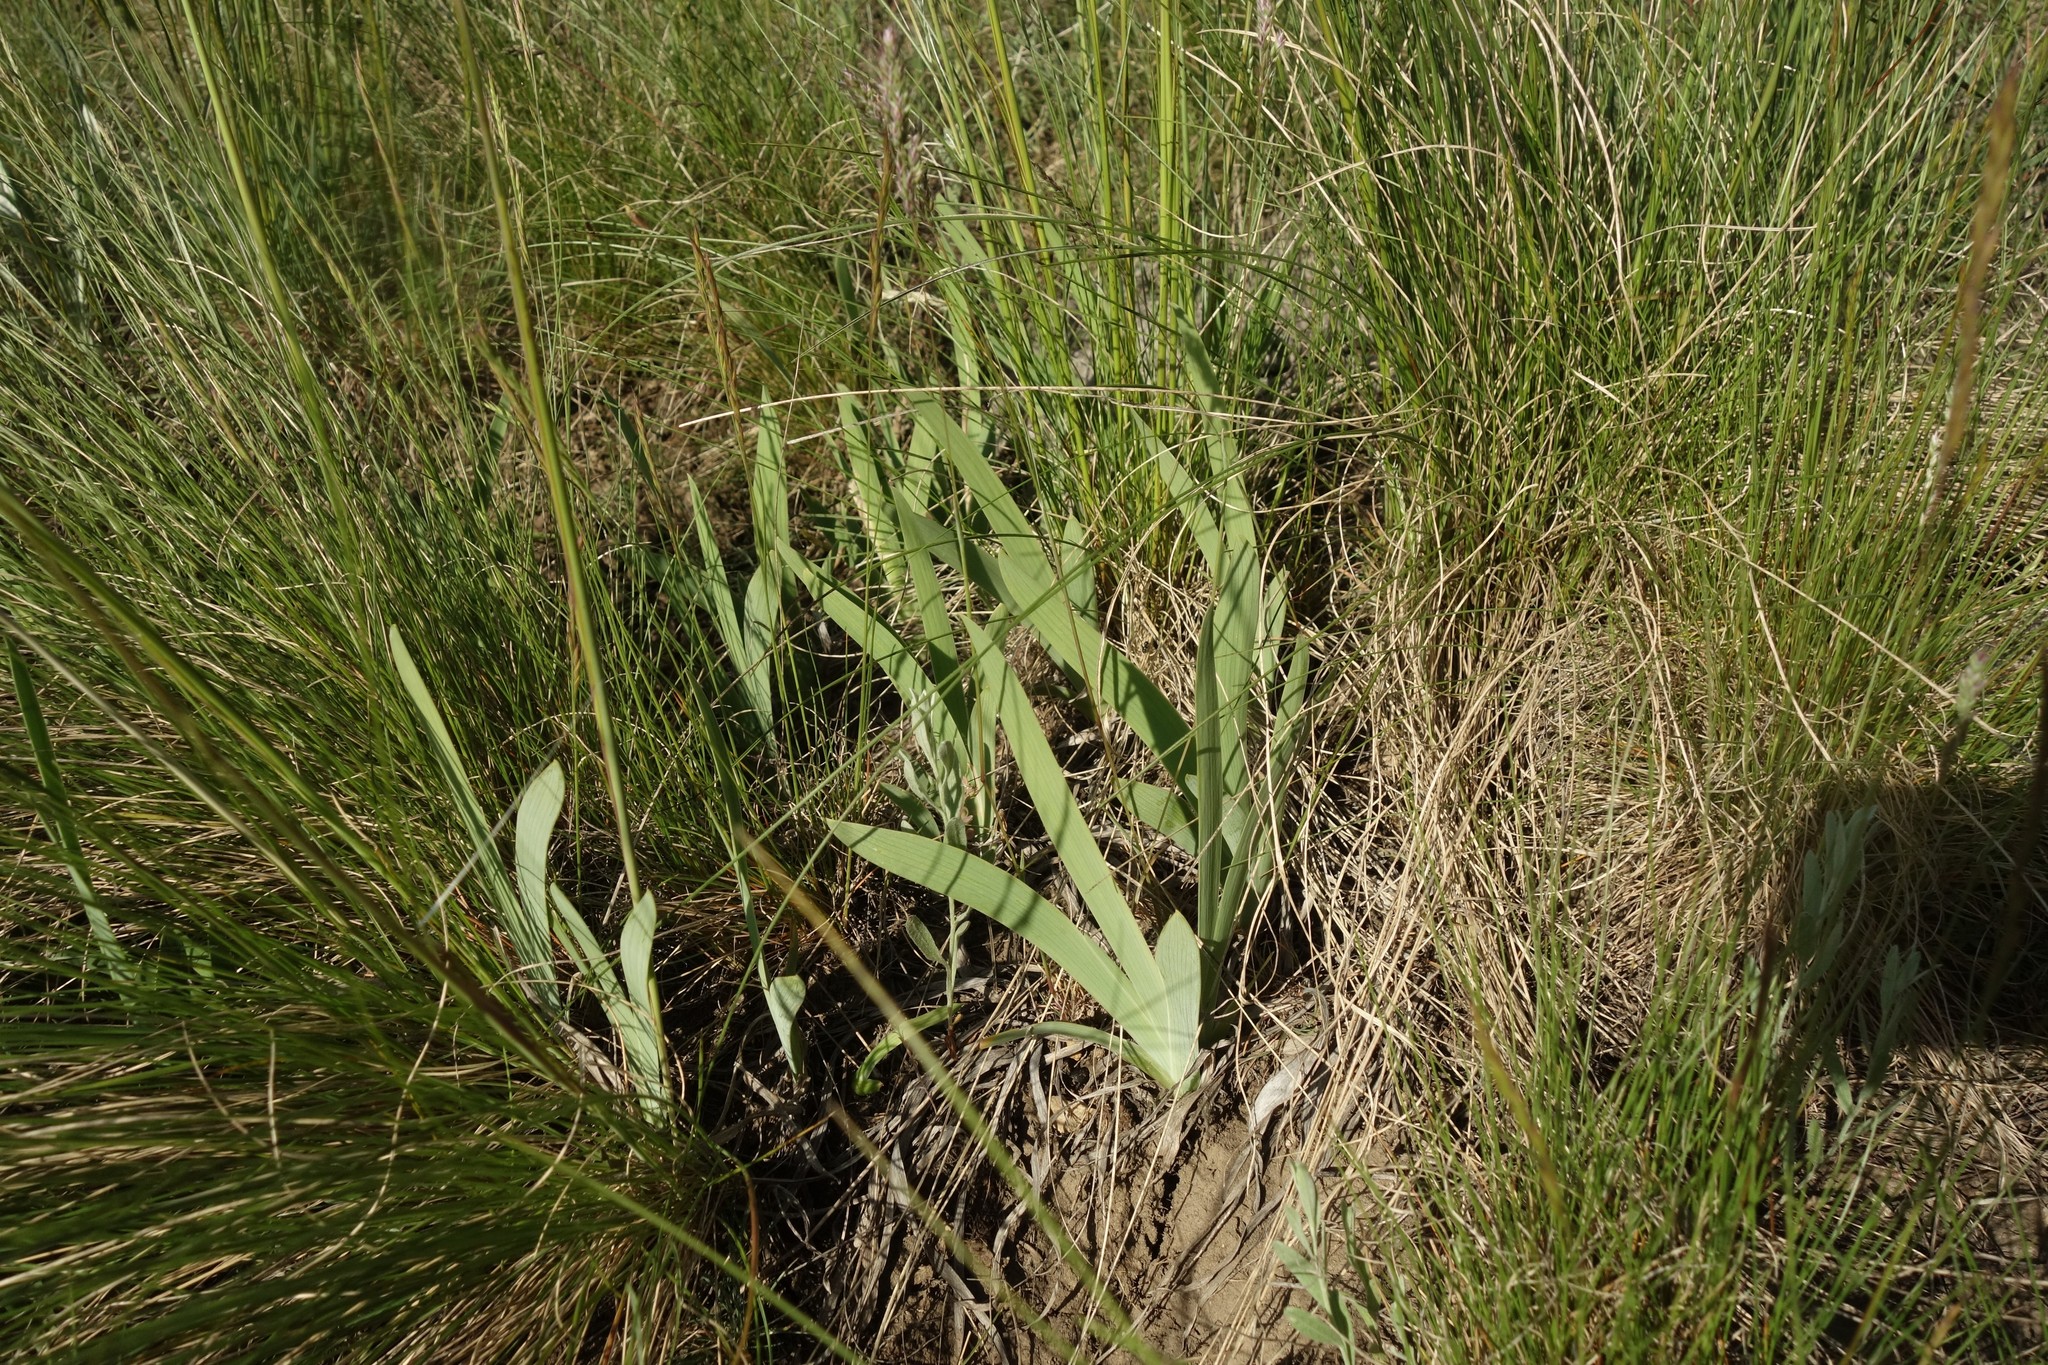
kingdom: Plantae
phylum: Tracheophyta
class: Liliopsida
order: Asparagales
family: Iridaceae
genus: Iris
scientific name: Iris pumila
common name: Dwarf iris
